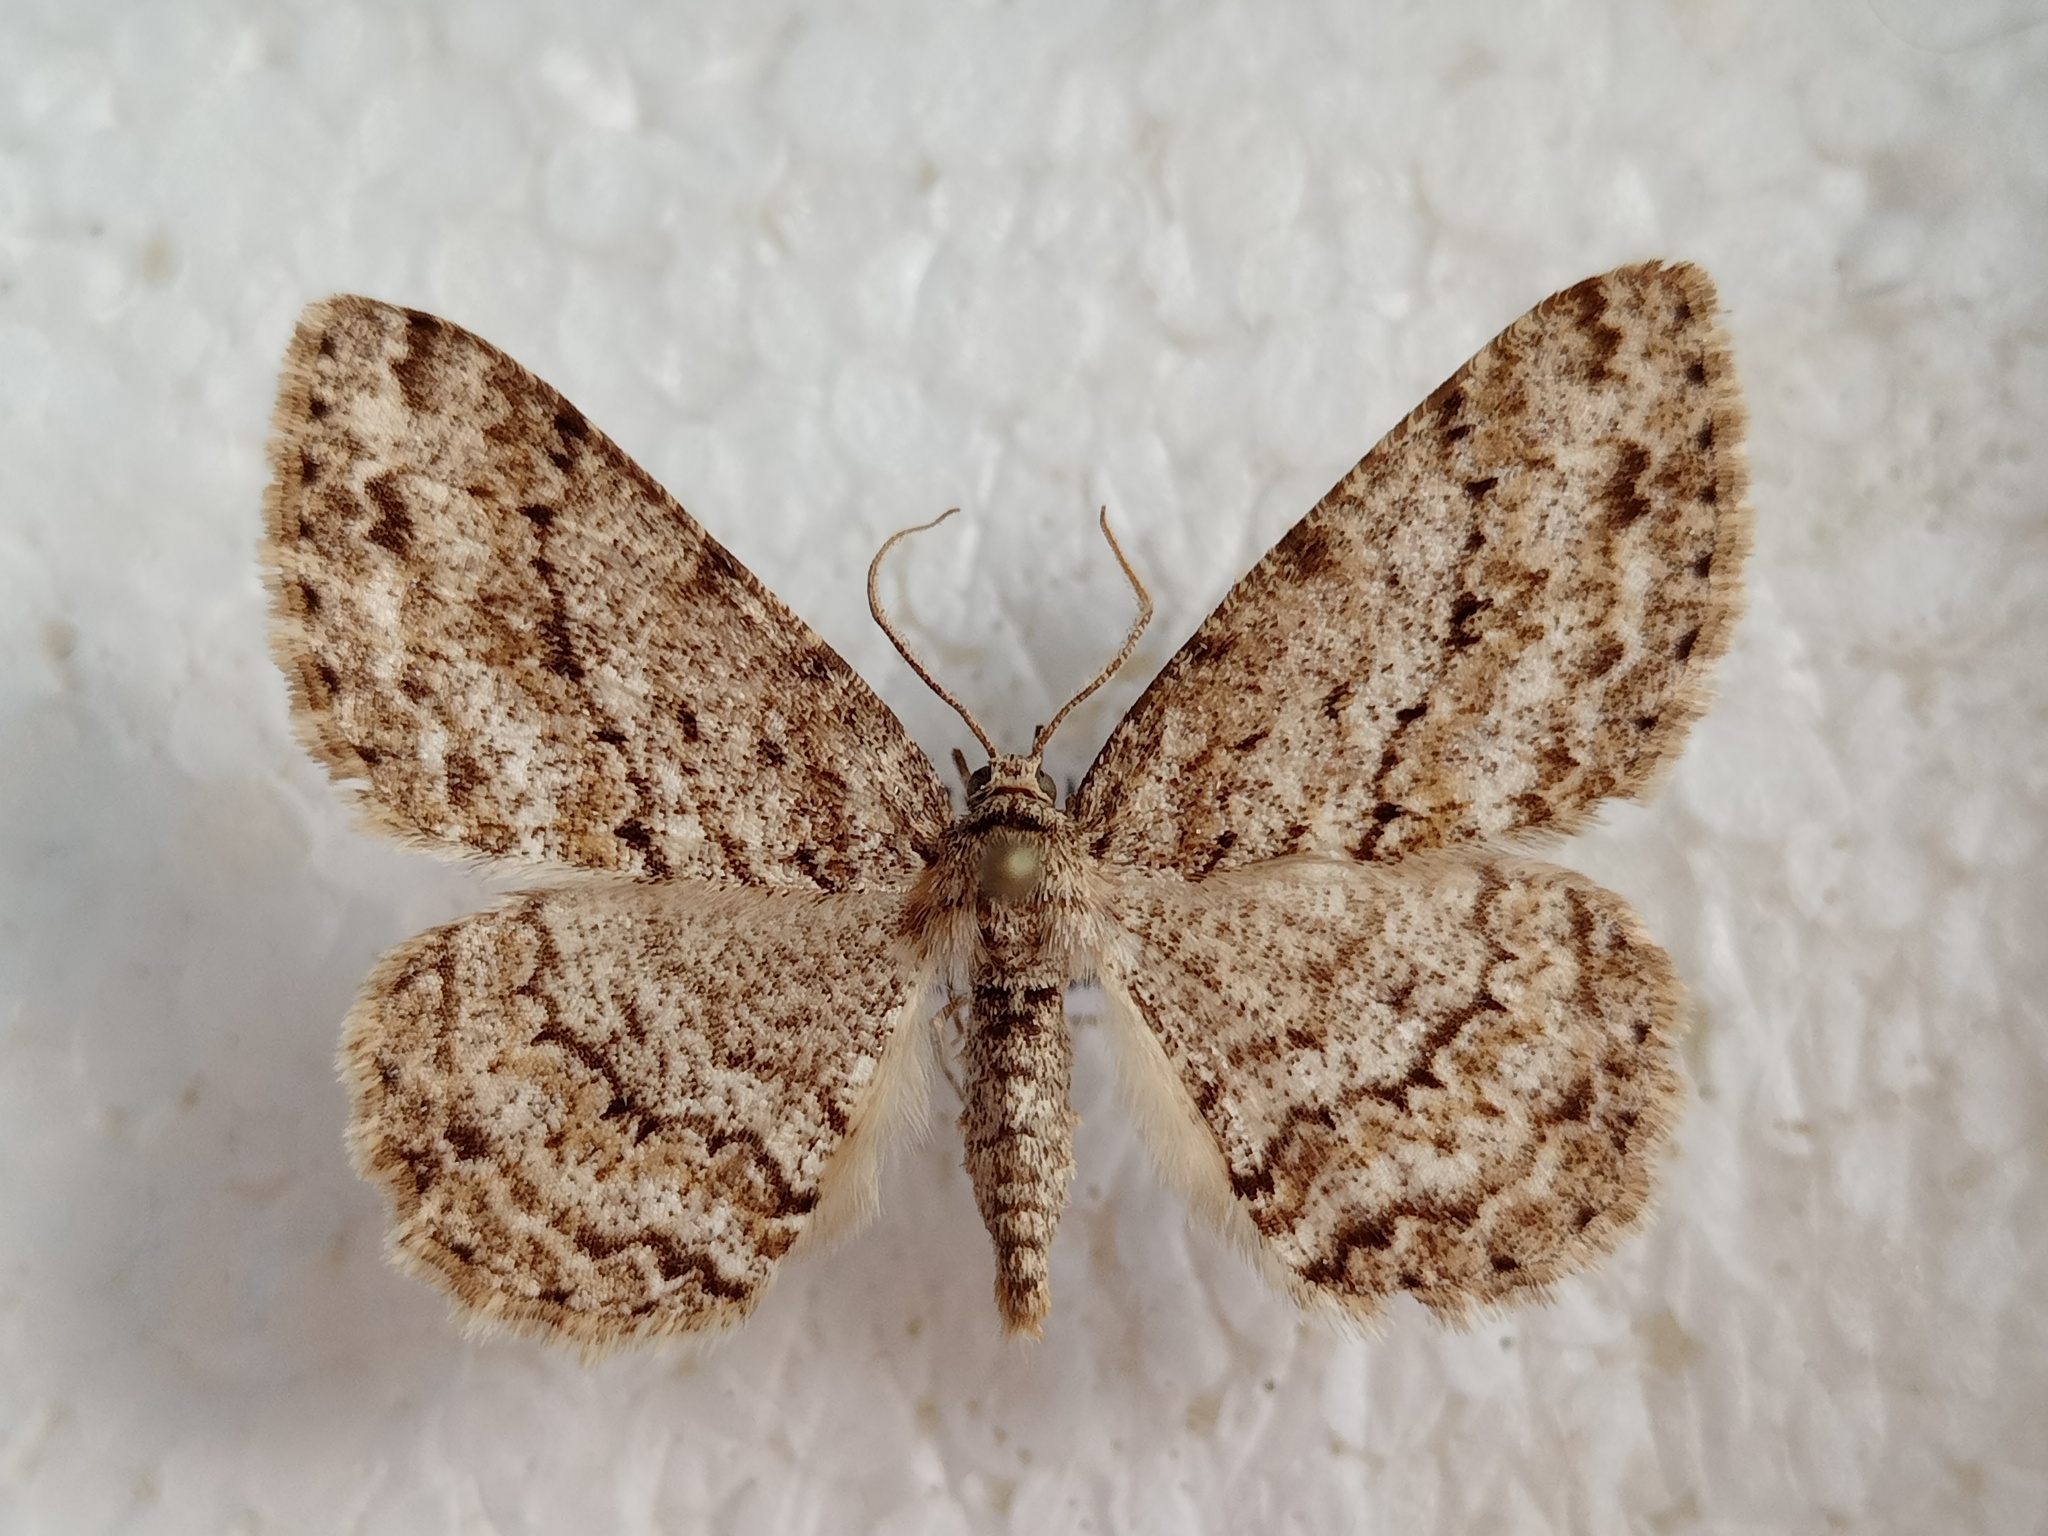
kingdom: Animalia
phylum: Arthropoda
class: Insecta
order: Lepidoptera
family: Geometridae
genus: Ectropis
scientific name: Ectropis crepuscularia
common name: Engrailed
